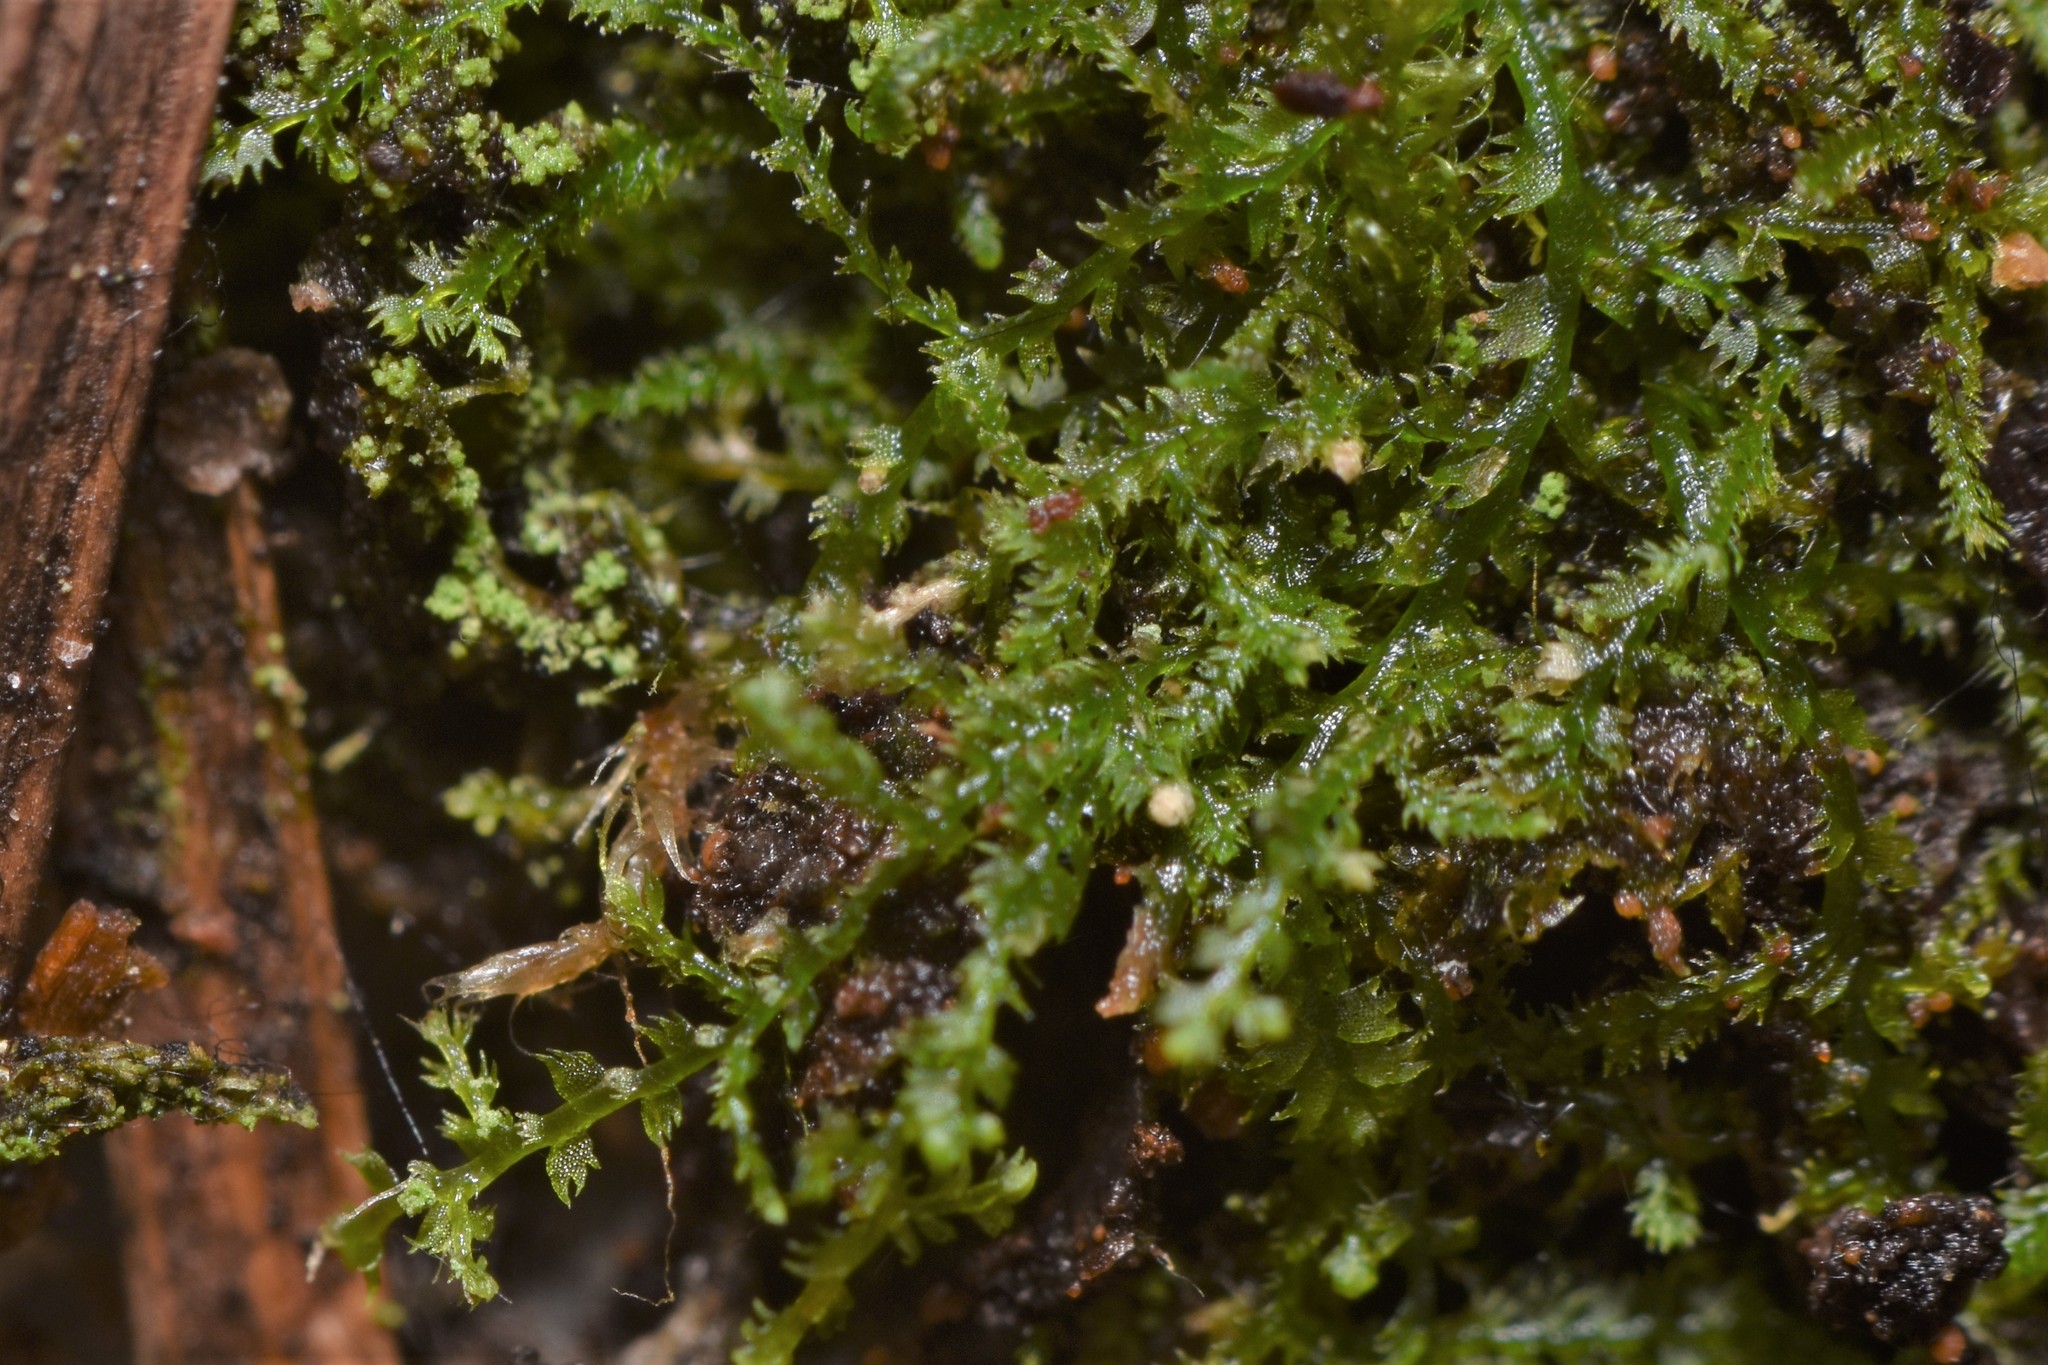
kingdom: Plantae
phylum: Marchantiophyta
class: Jungermanniopsida
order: Jungermanniales
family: Lepidoziaceae
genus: Lepidozia
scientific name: Lepidozia reptans
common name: Creeping fingerwort
